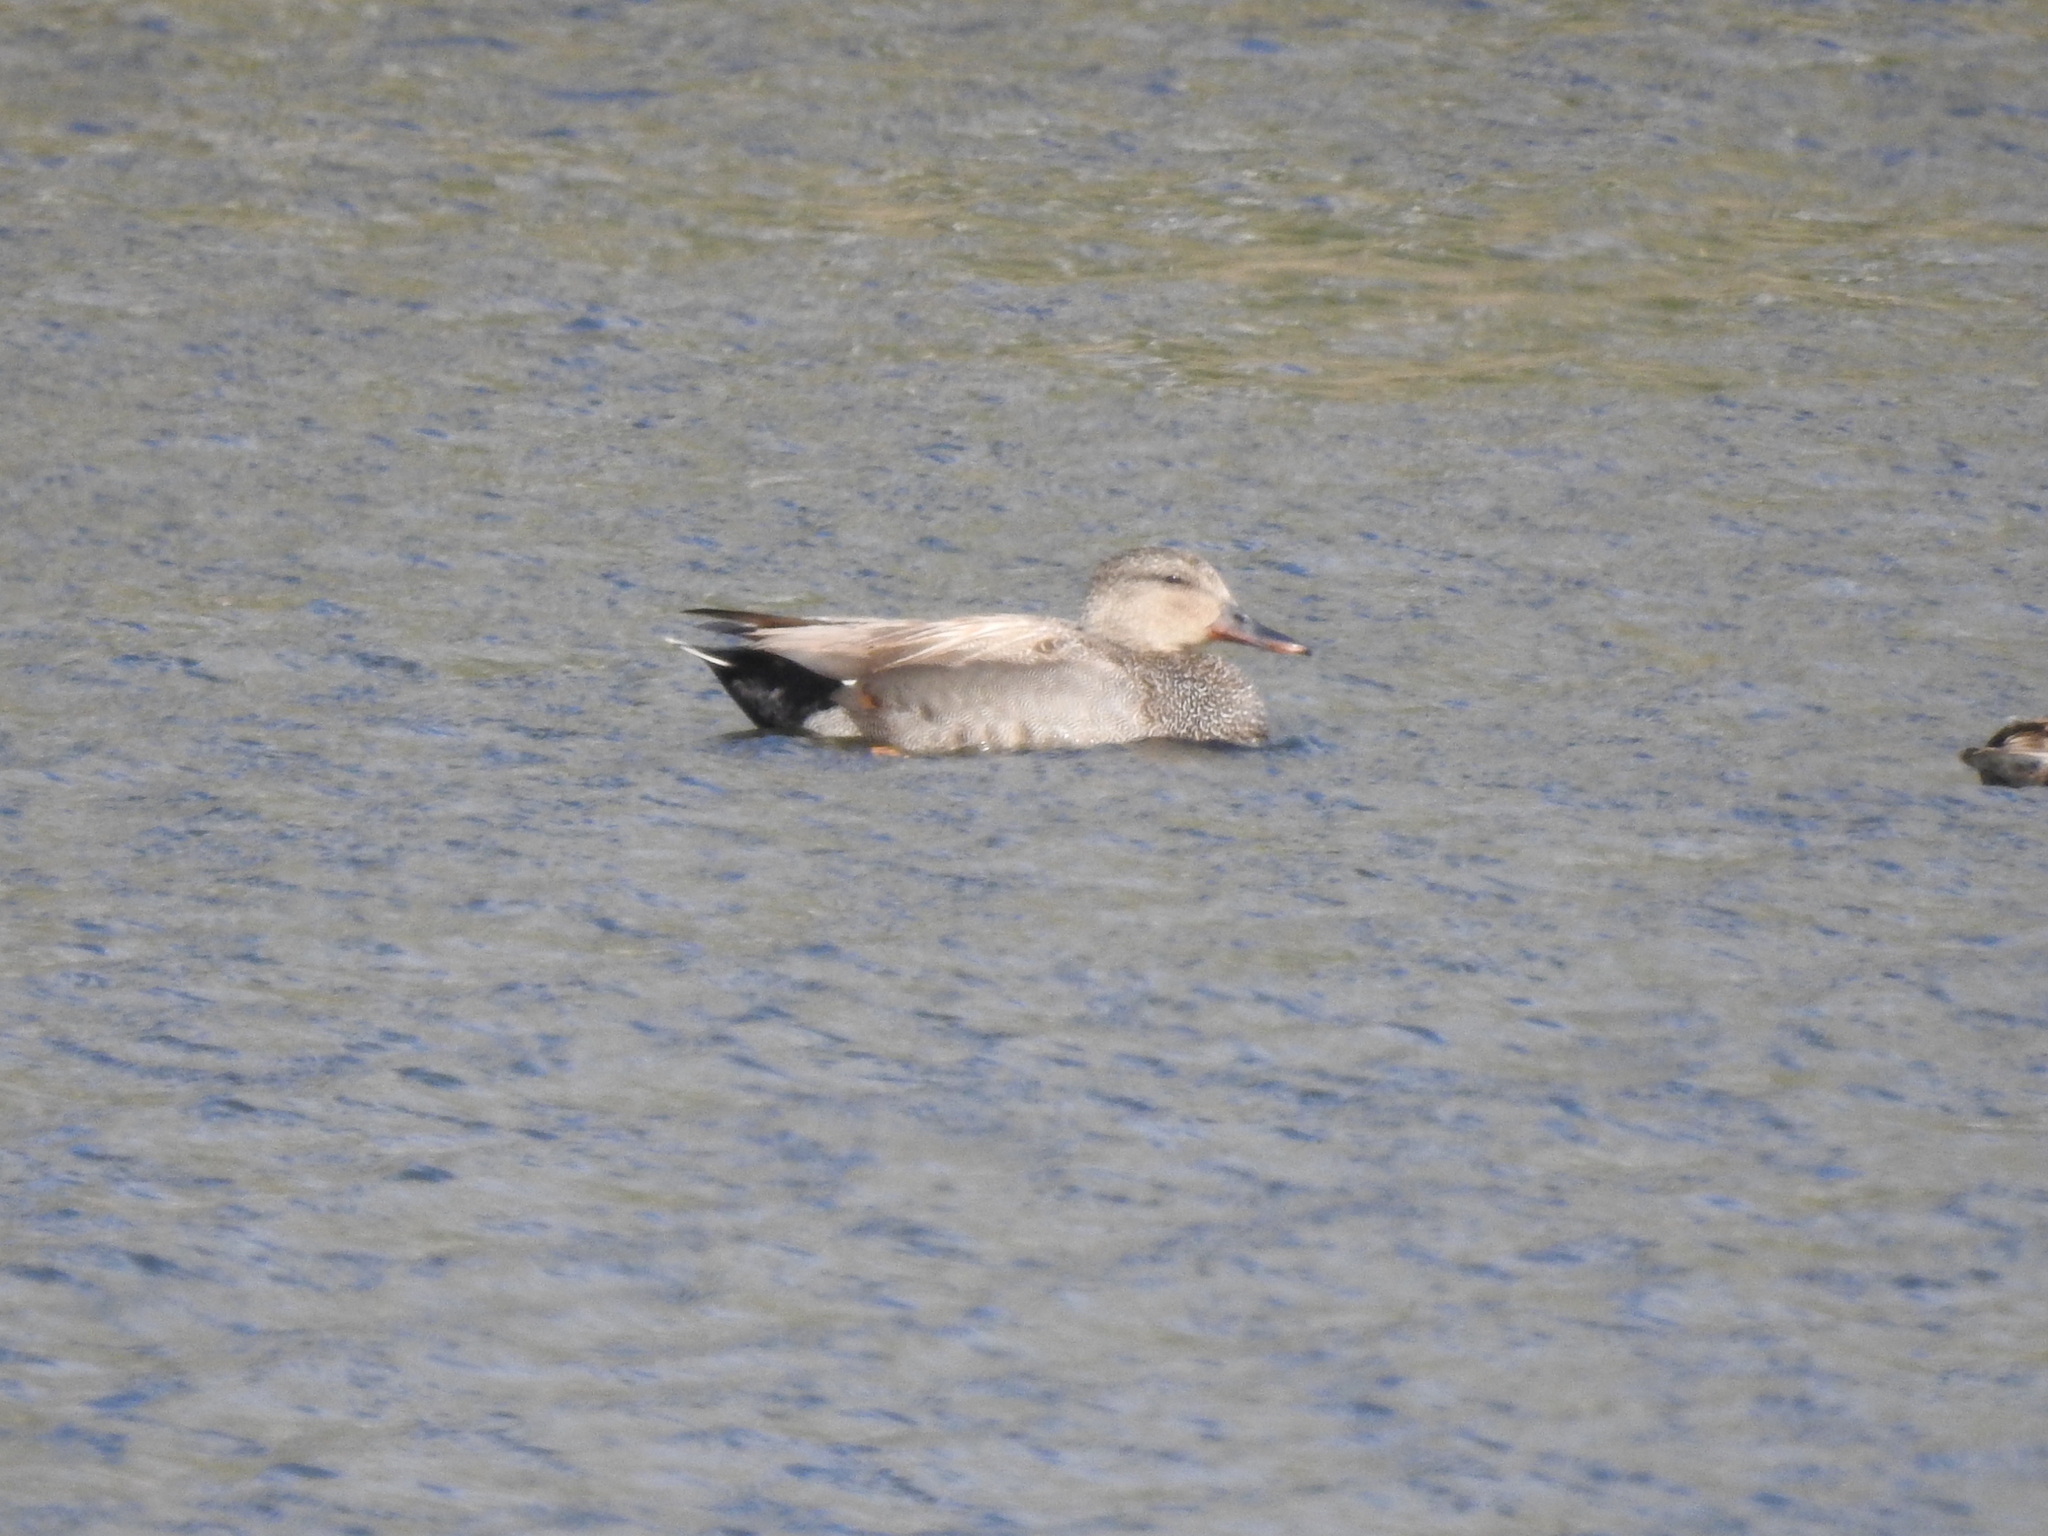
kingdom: Animalia
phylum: Chordata
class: Aves
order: Anseriformes
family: Anatidae
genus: Mareca
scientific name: Mareca strepera
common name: Gadwall
